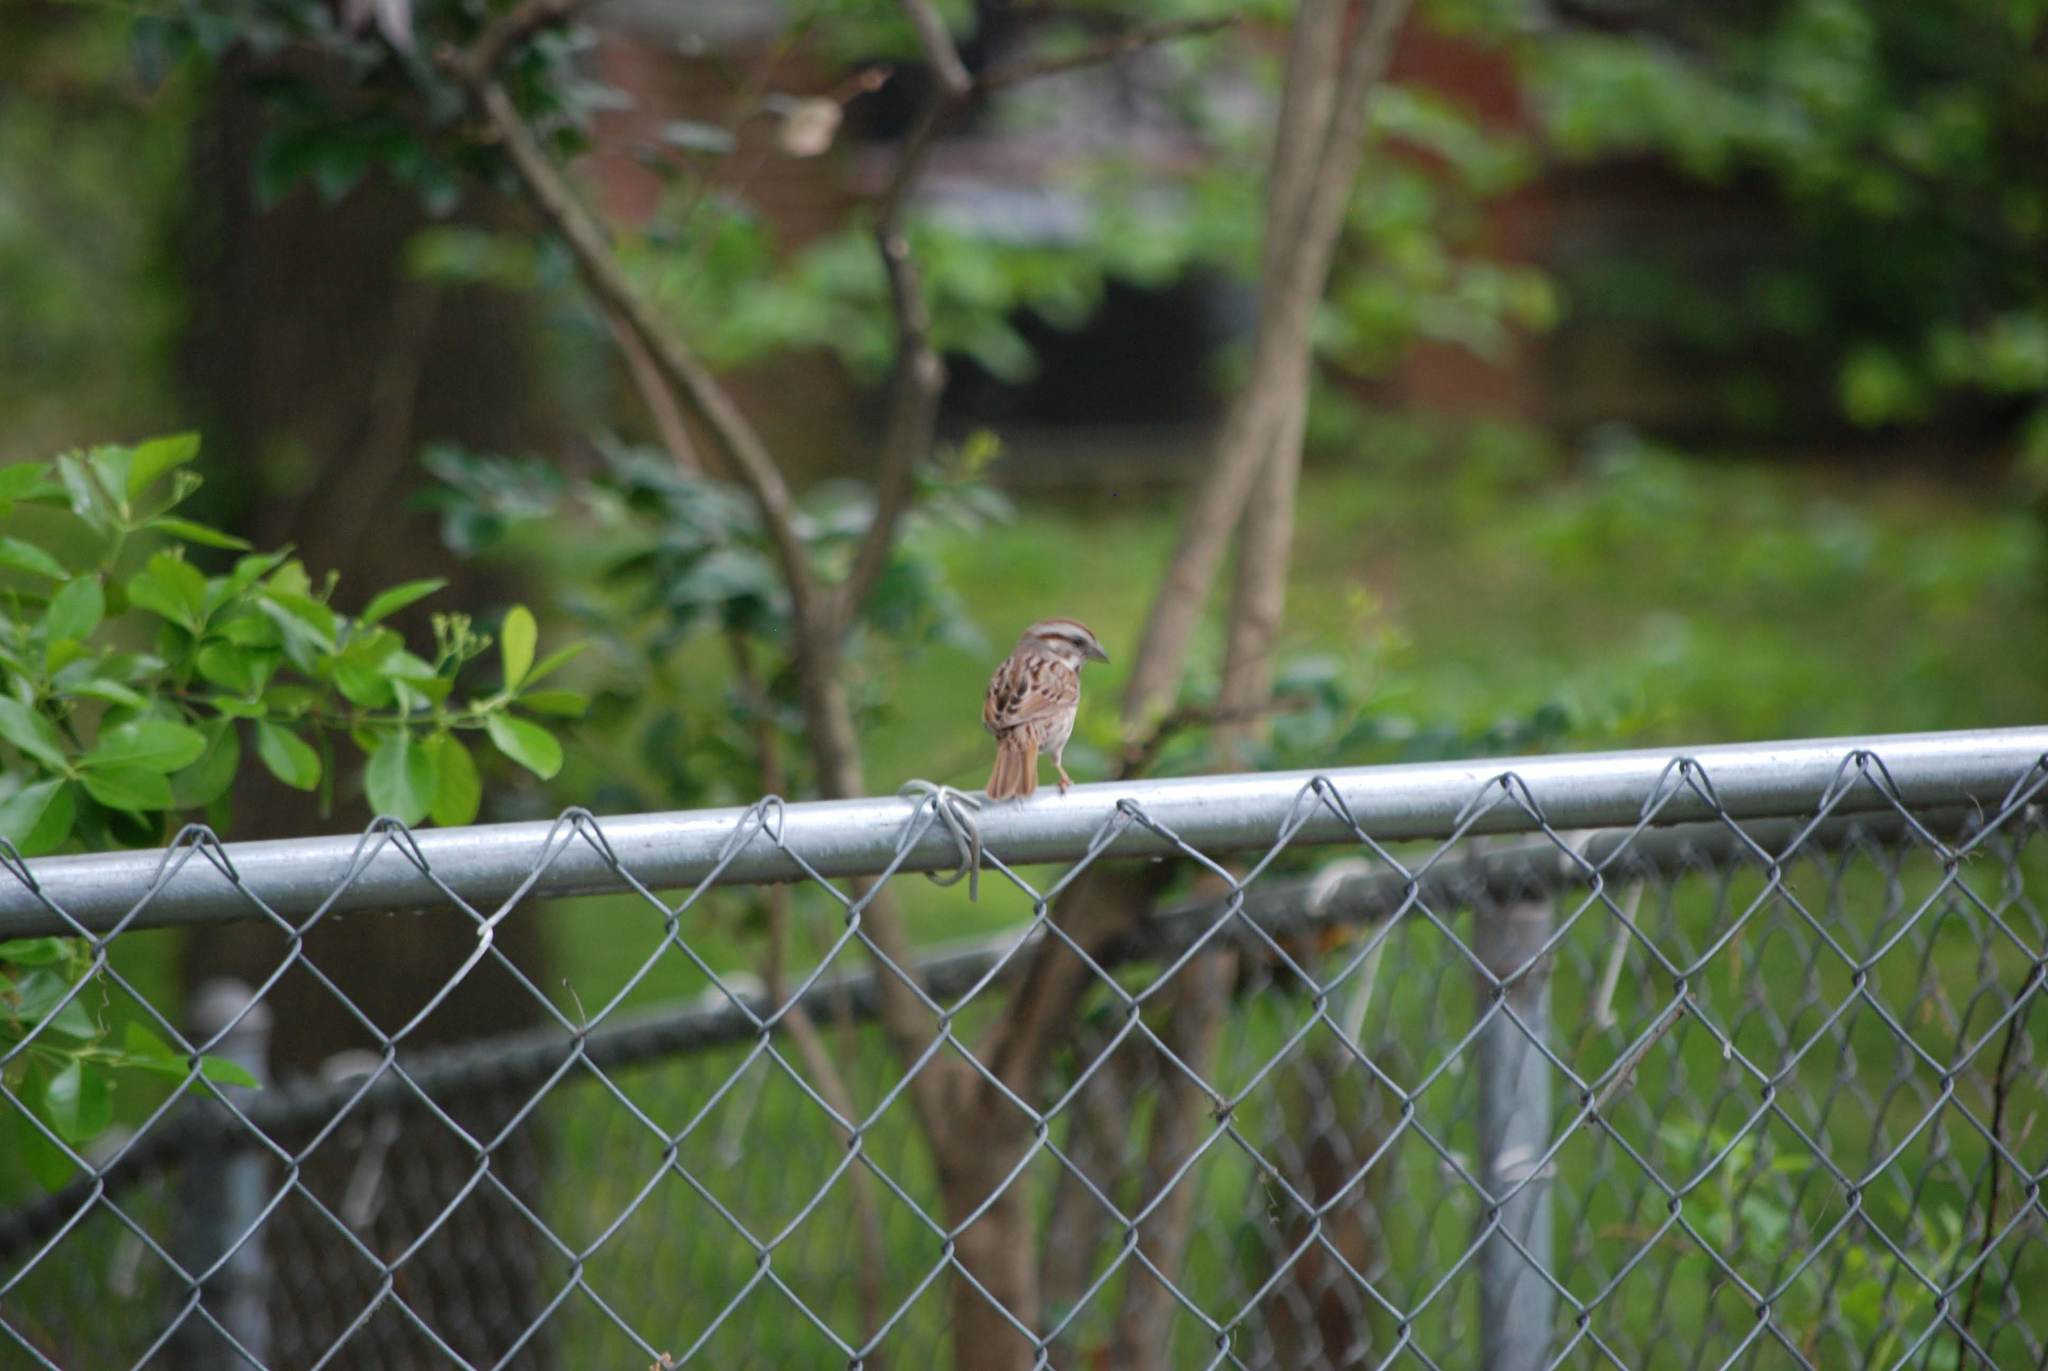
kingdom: Animalia
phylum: Chordata
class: Aves
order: Passeriformes
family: Passerellidae
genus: Melospiza
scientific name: Melospiza melodia
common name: Song sparrow
